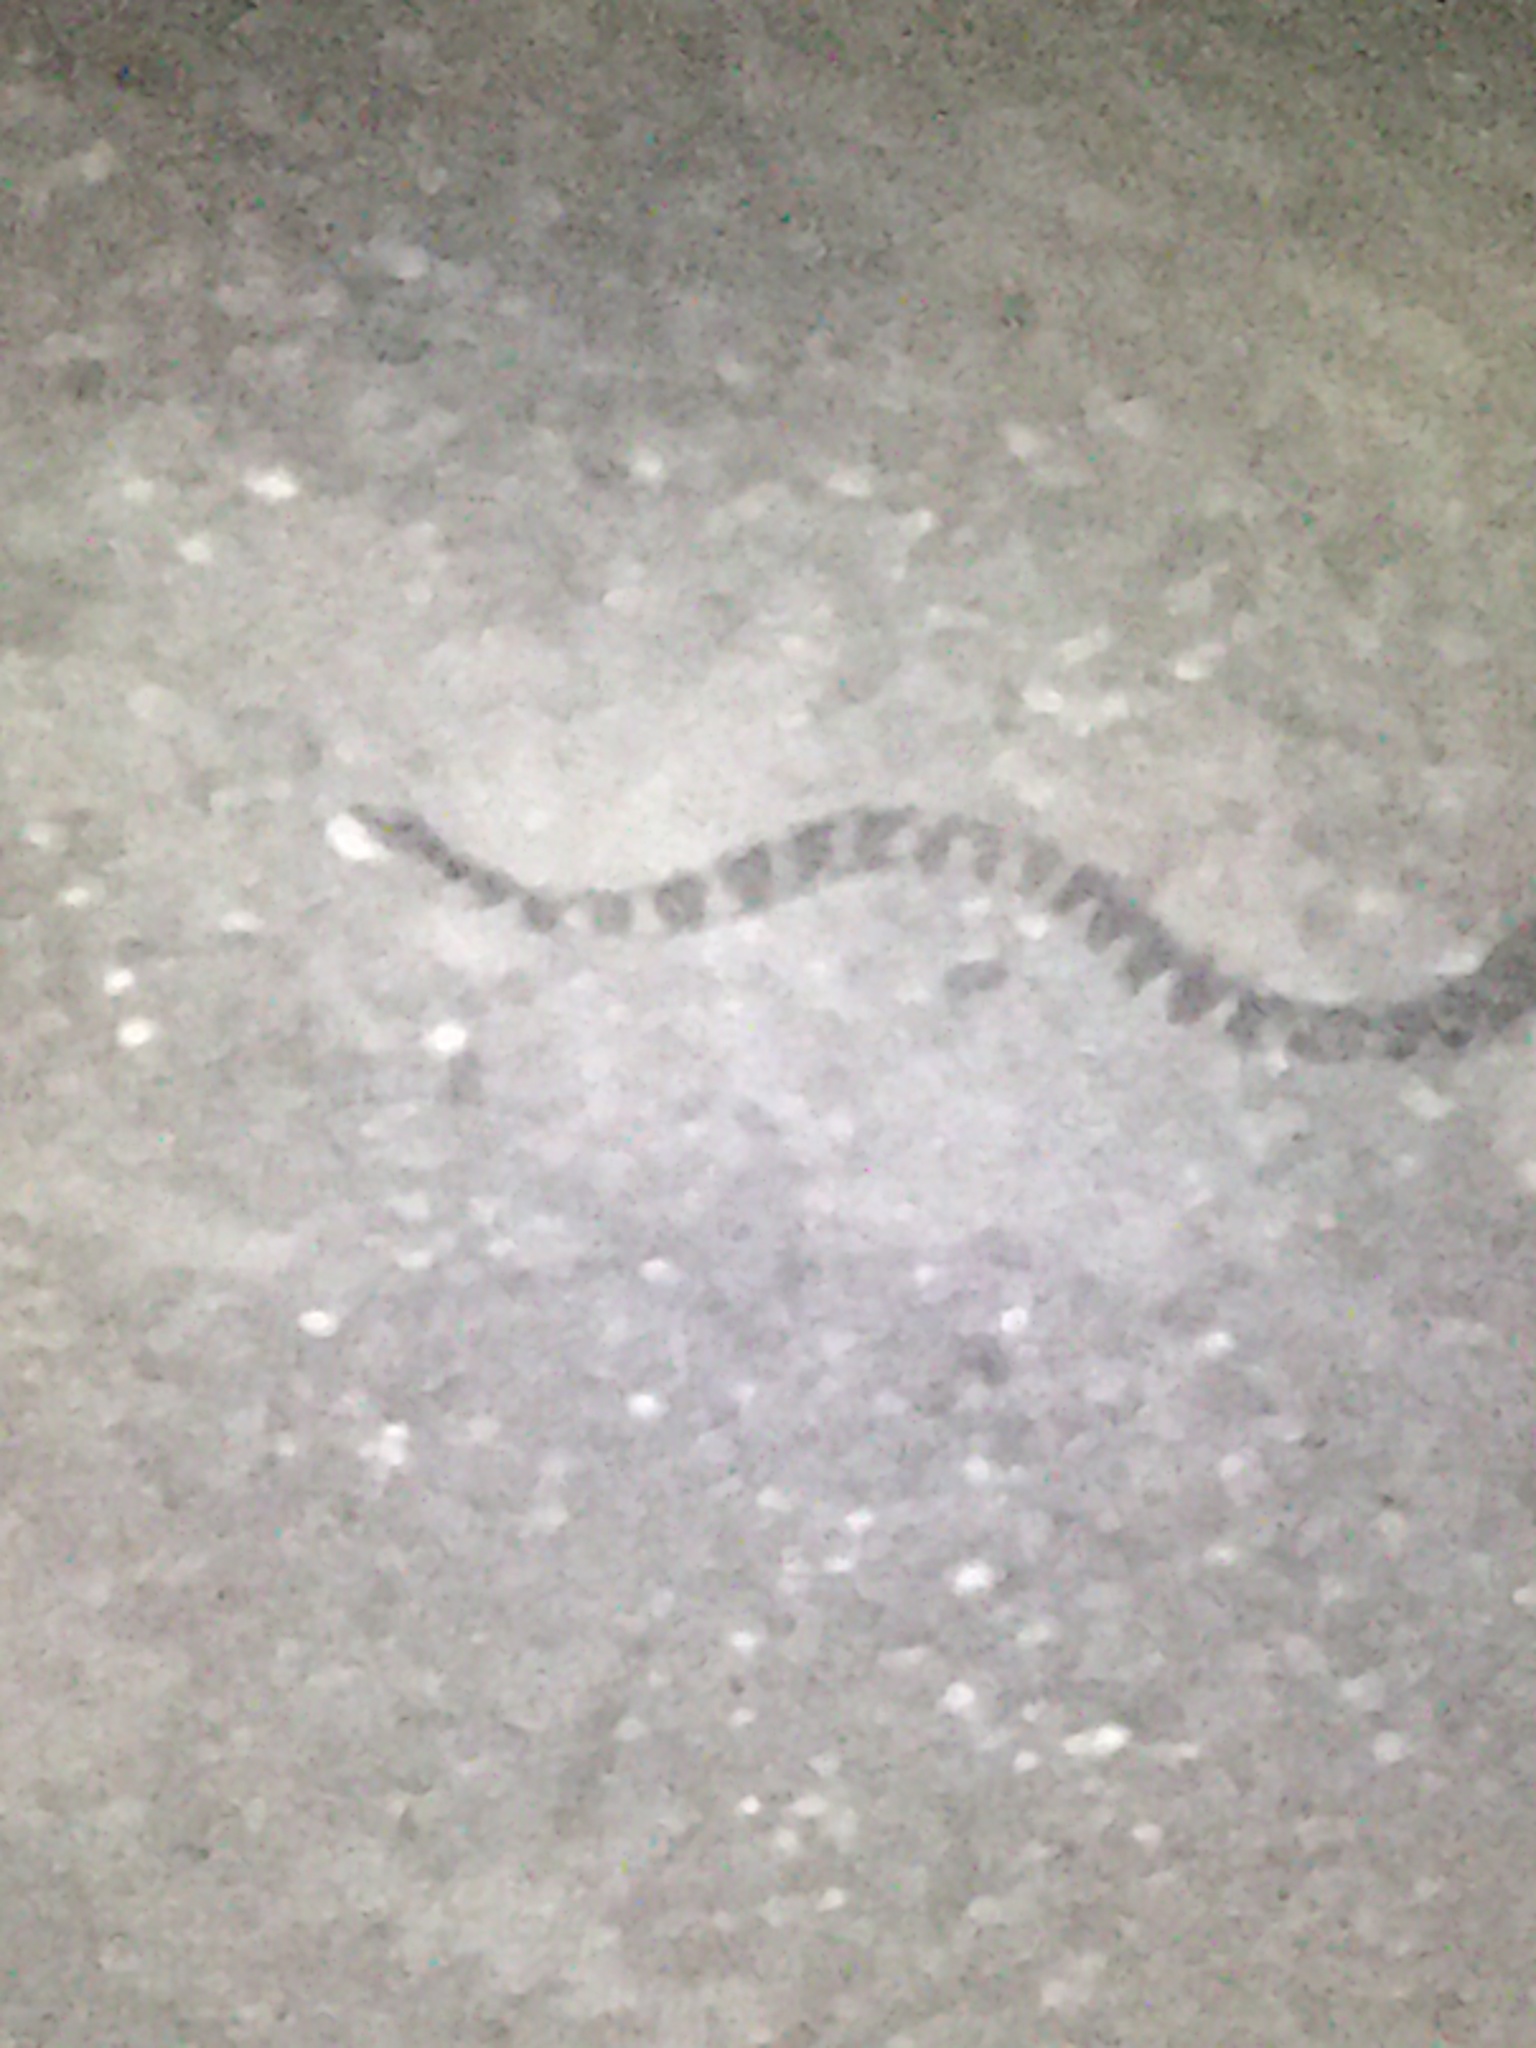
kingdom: Animalia
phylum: Chordata
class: Squamata
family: Colubridae
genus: Nerodia
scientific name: Nerodia sipedon
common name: Northern water snake
